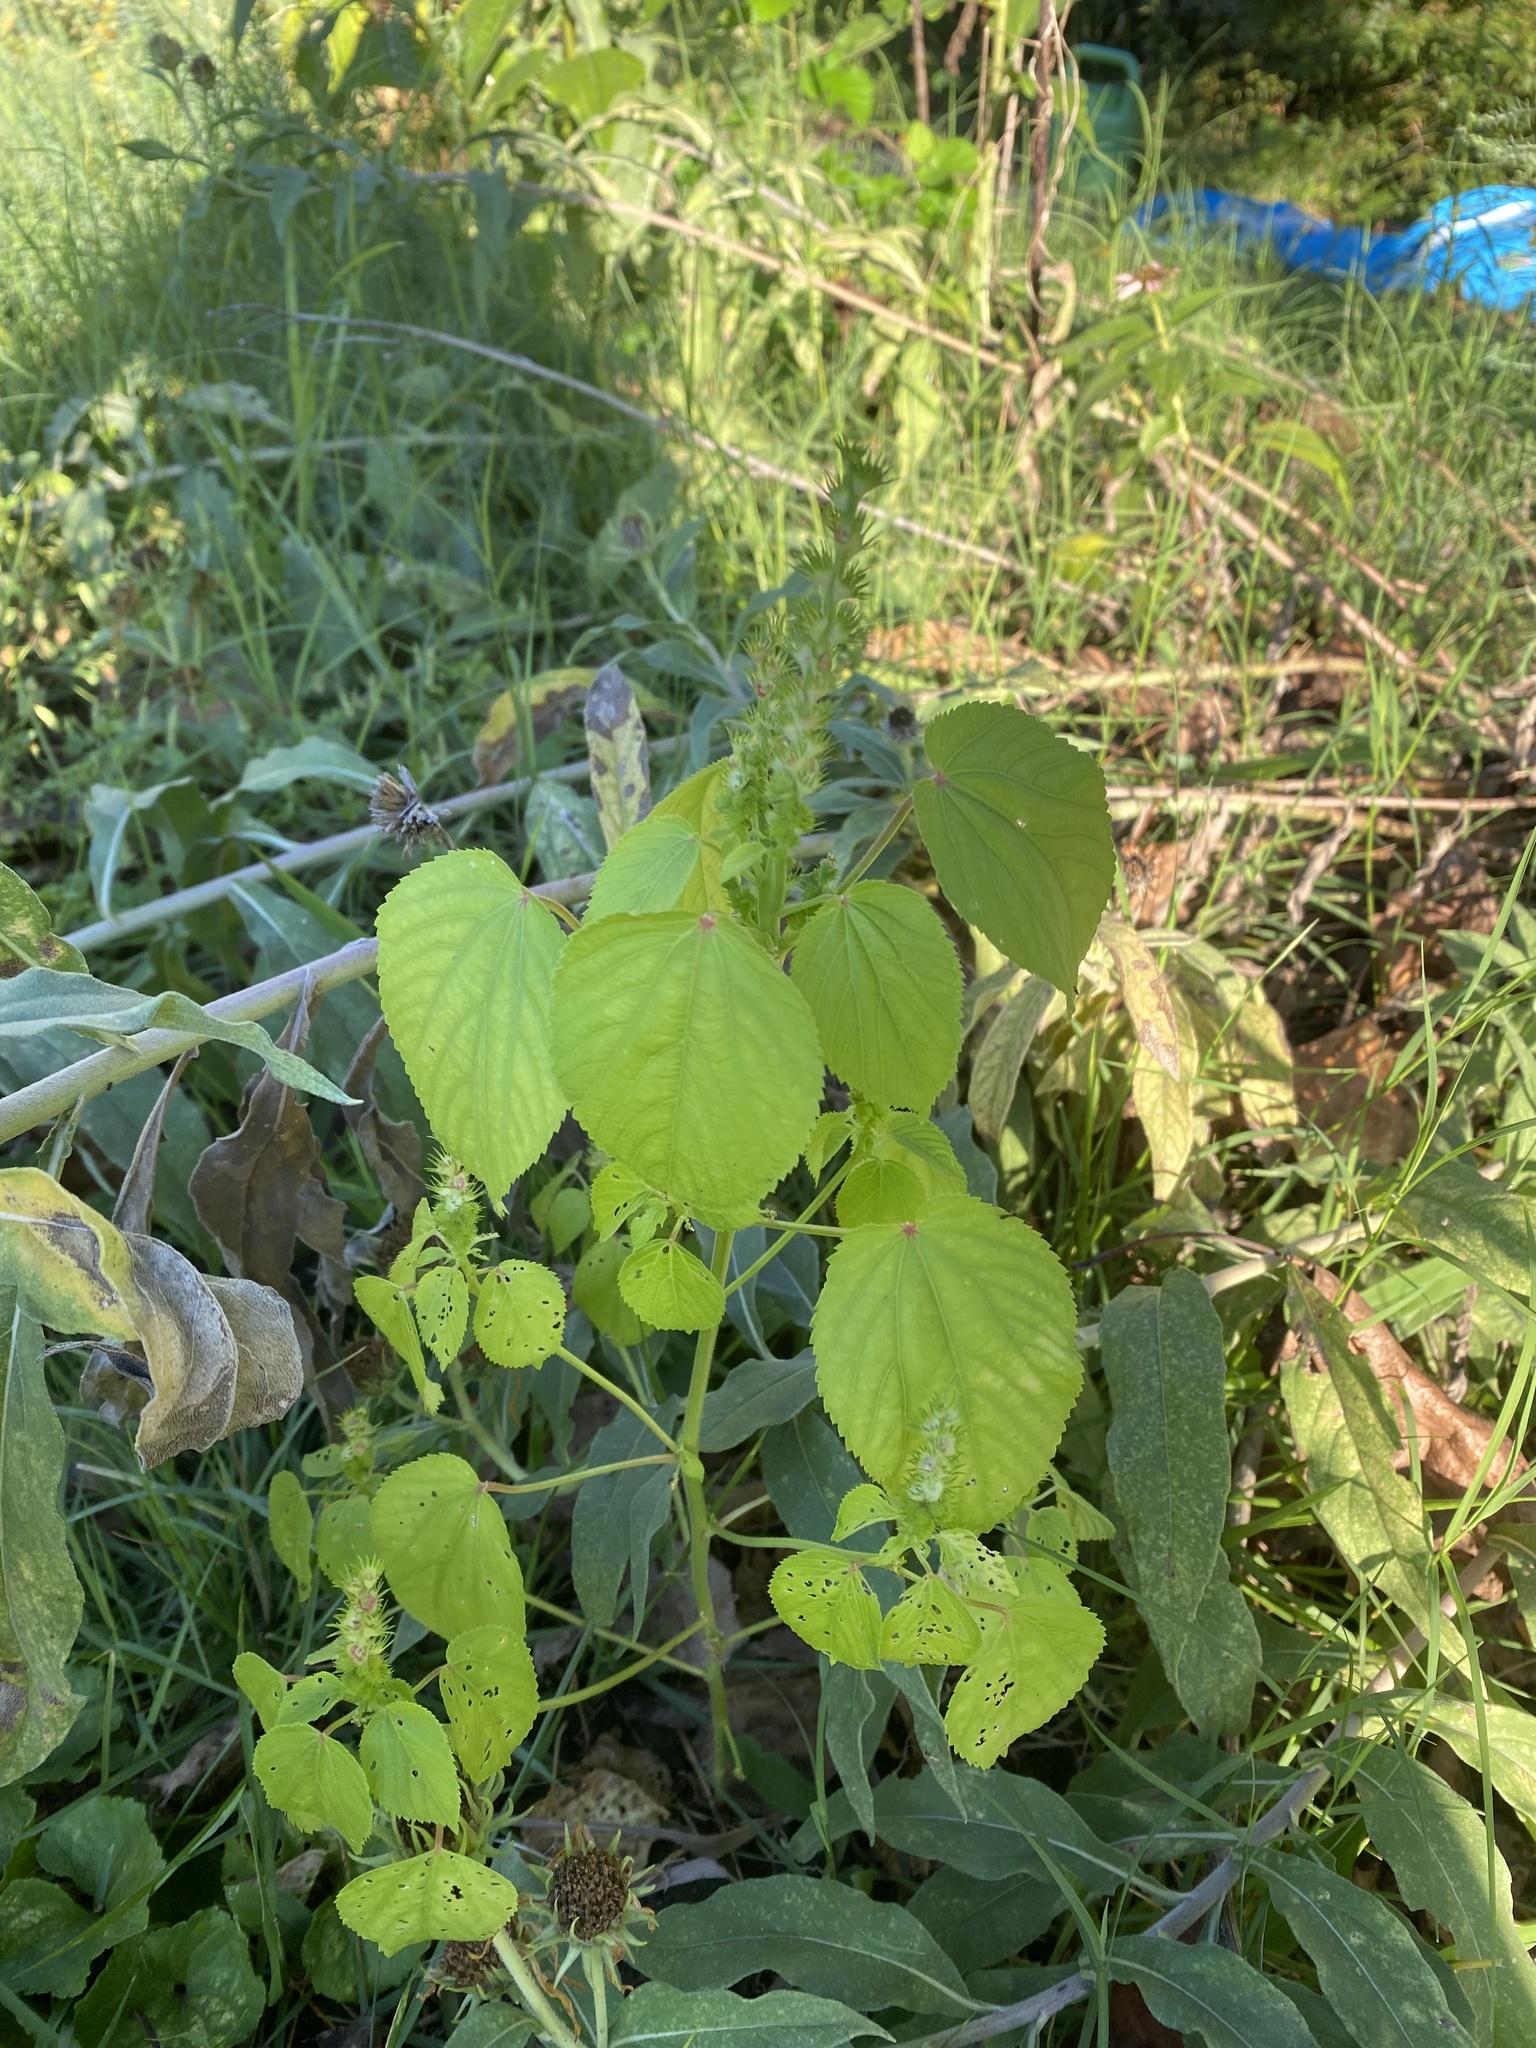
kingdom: Plantae
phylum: Tracheophyta
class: Magnoliopsida
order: Malpighiales
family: Euphorbiaceae
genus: Acalypha
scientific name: Acalypha ostryifolia
